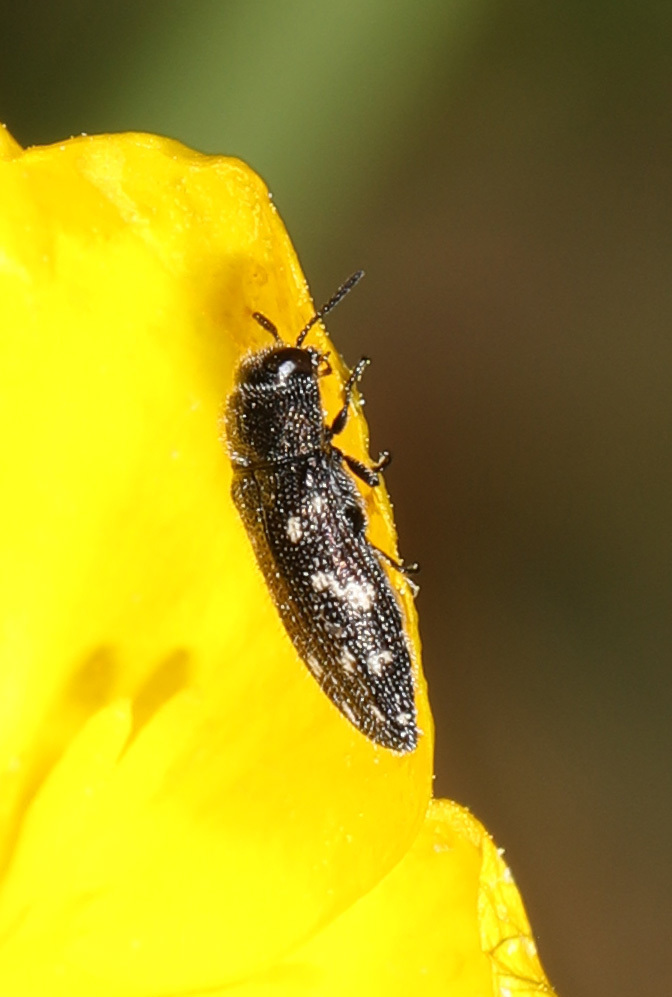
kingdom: Animalia
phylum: Arthropoda
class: Insecta
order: Coleoptera
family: Buprestidae
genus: Acmaeodera
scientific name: Acmaeodera tubulus
